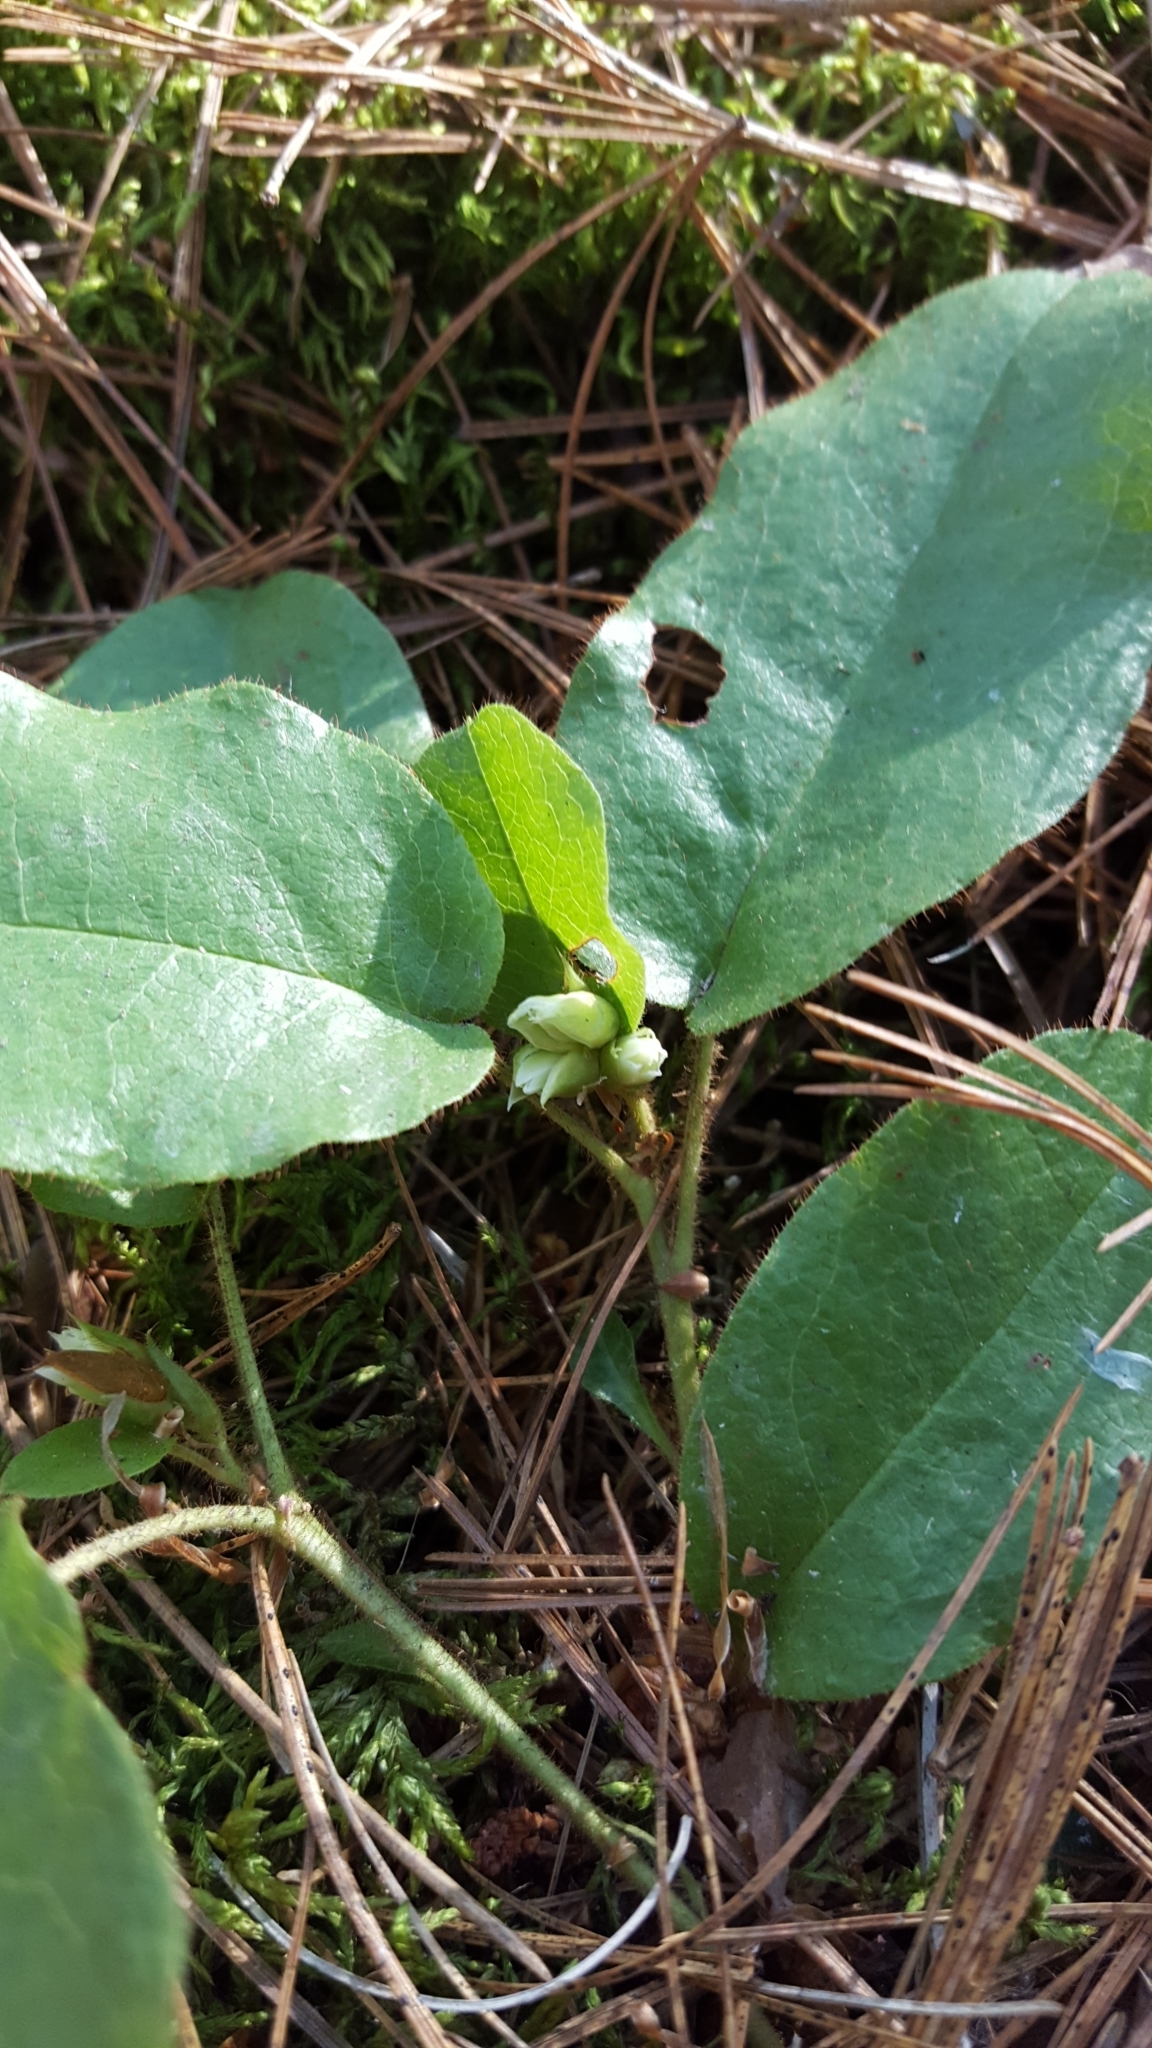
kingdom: Plantae
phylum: Tracheophyta
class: Magnoliopsida
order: Ericales
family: Ericaceae
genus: Epigaea
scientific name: Epigaea repens
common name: Gravelroot
